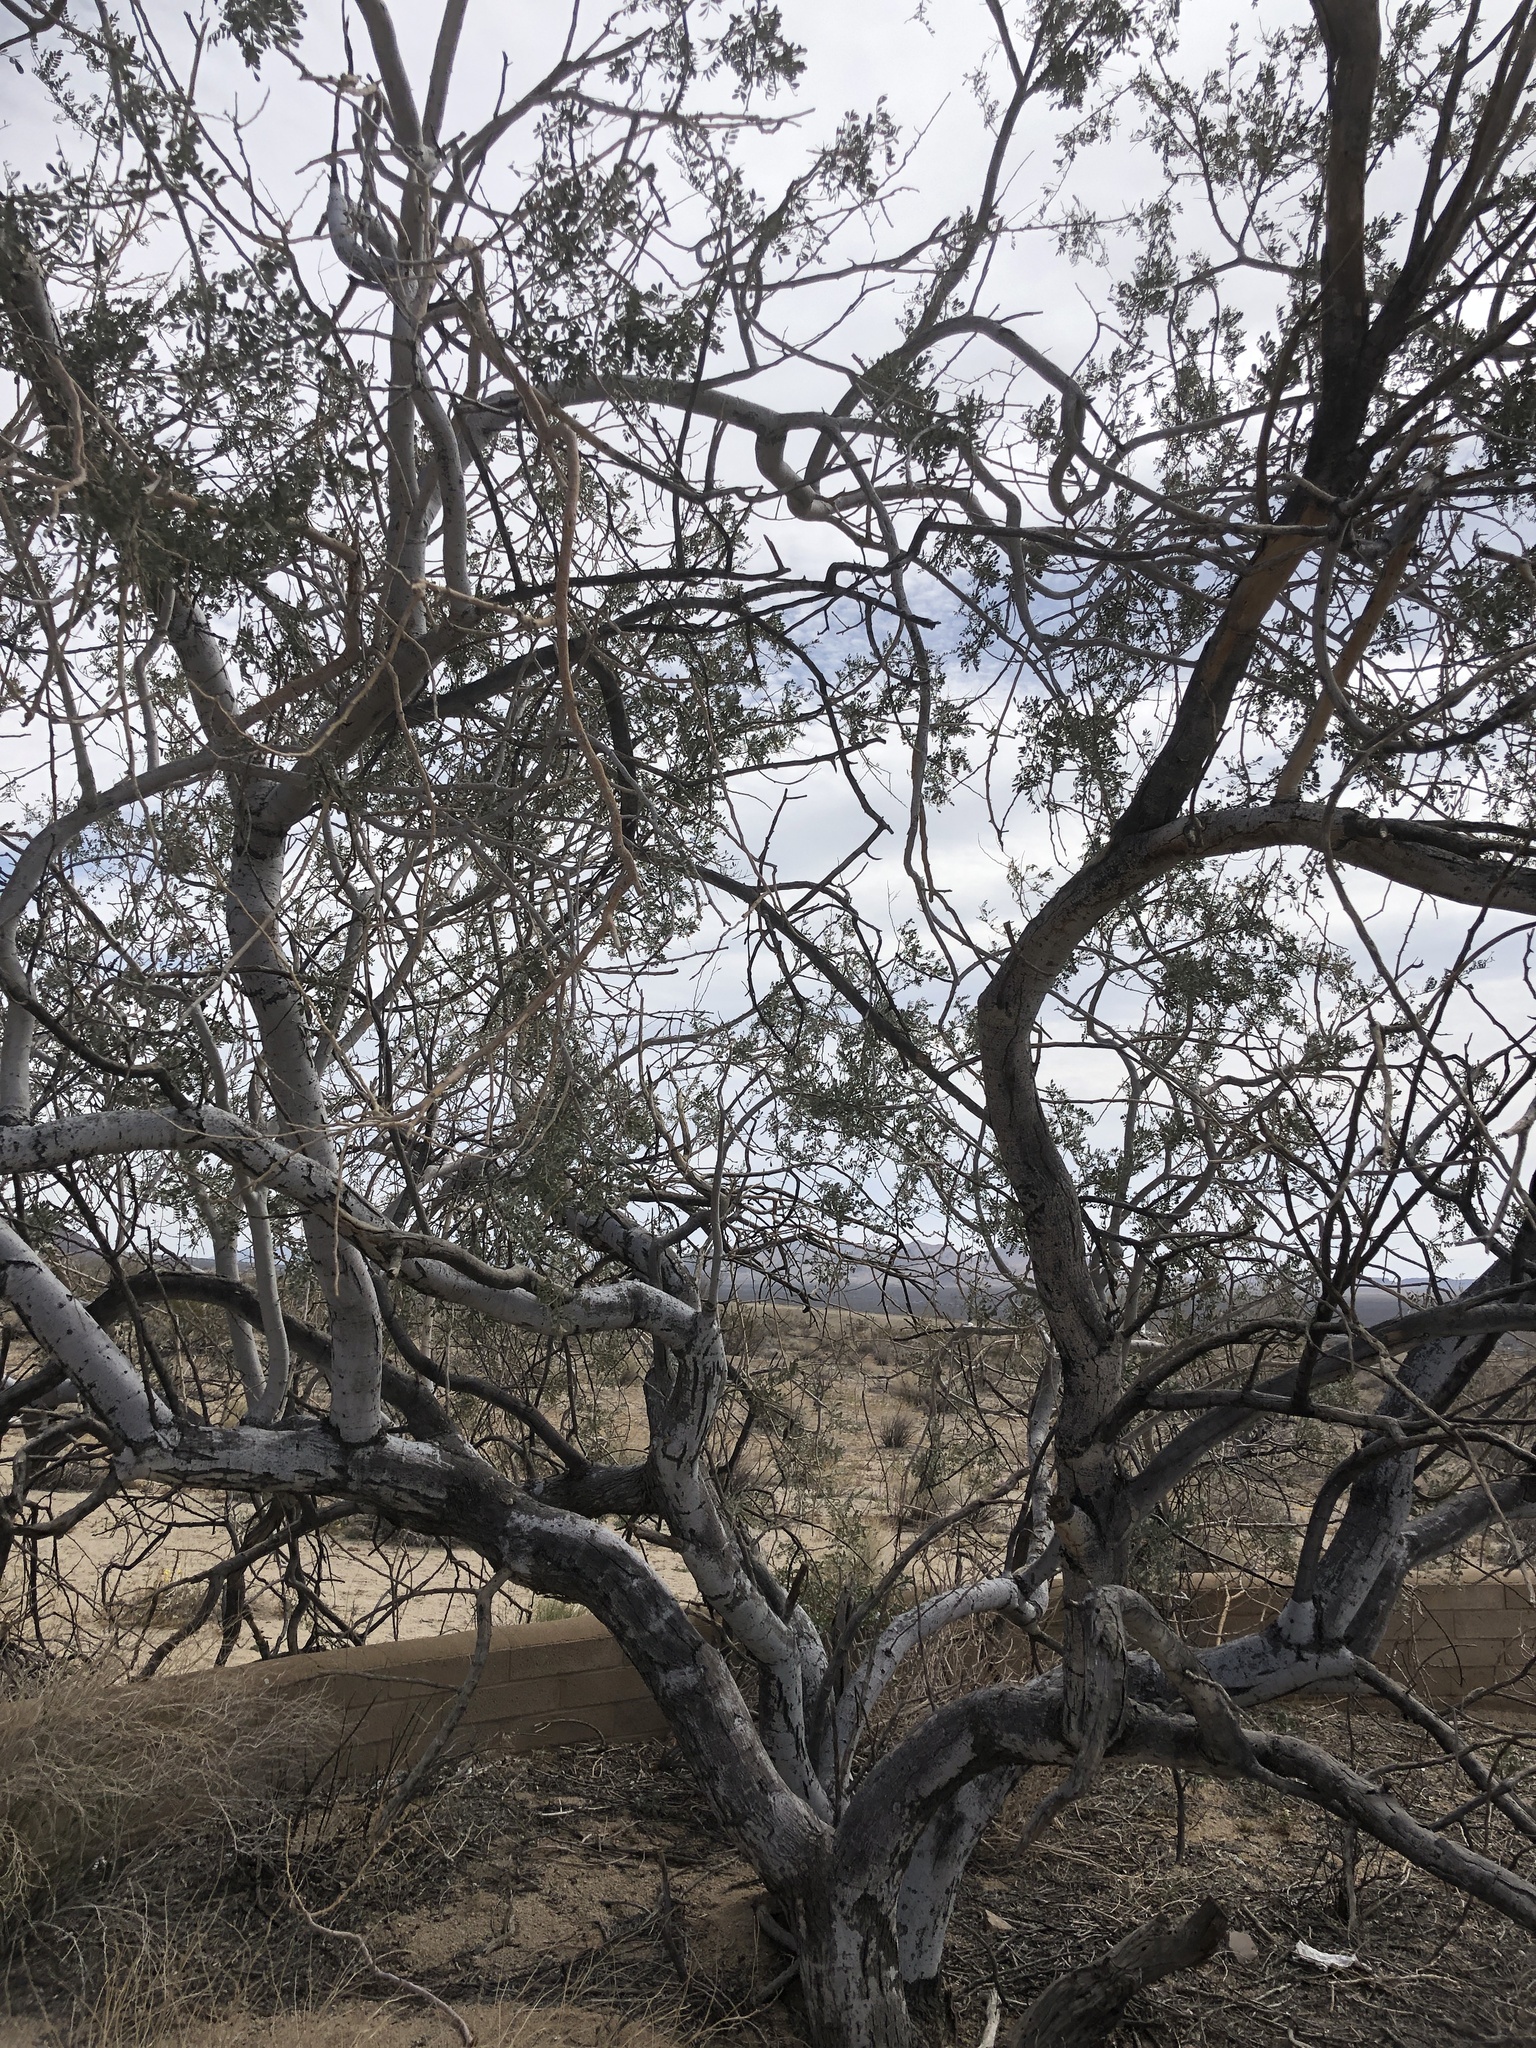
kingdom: Plantae
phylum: Tracheophyta
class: Magnoliopsida
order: Fabales
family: Fabaceae
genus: Olneya
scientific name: Olneya tesota
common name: Desert ironwood
